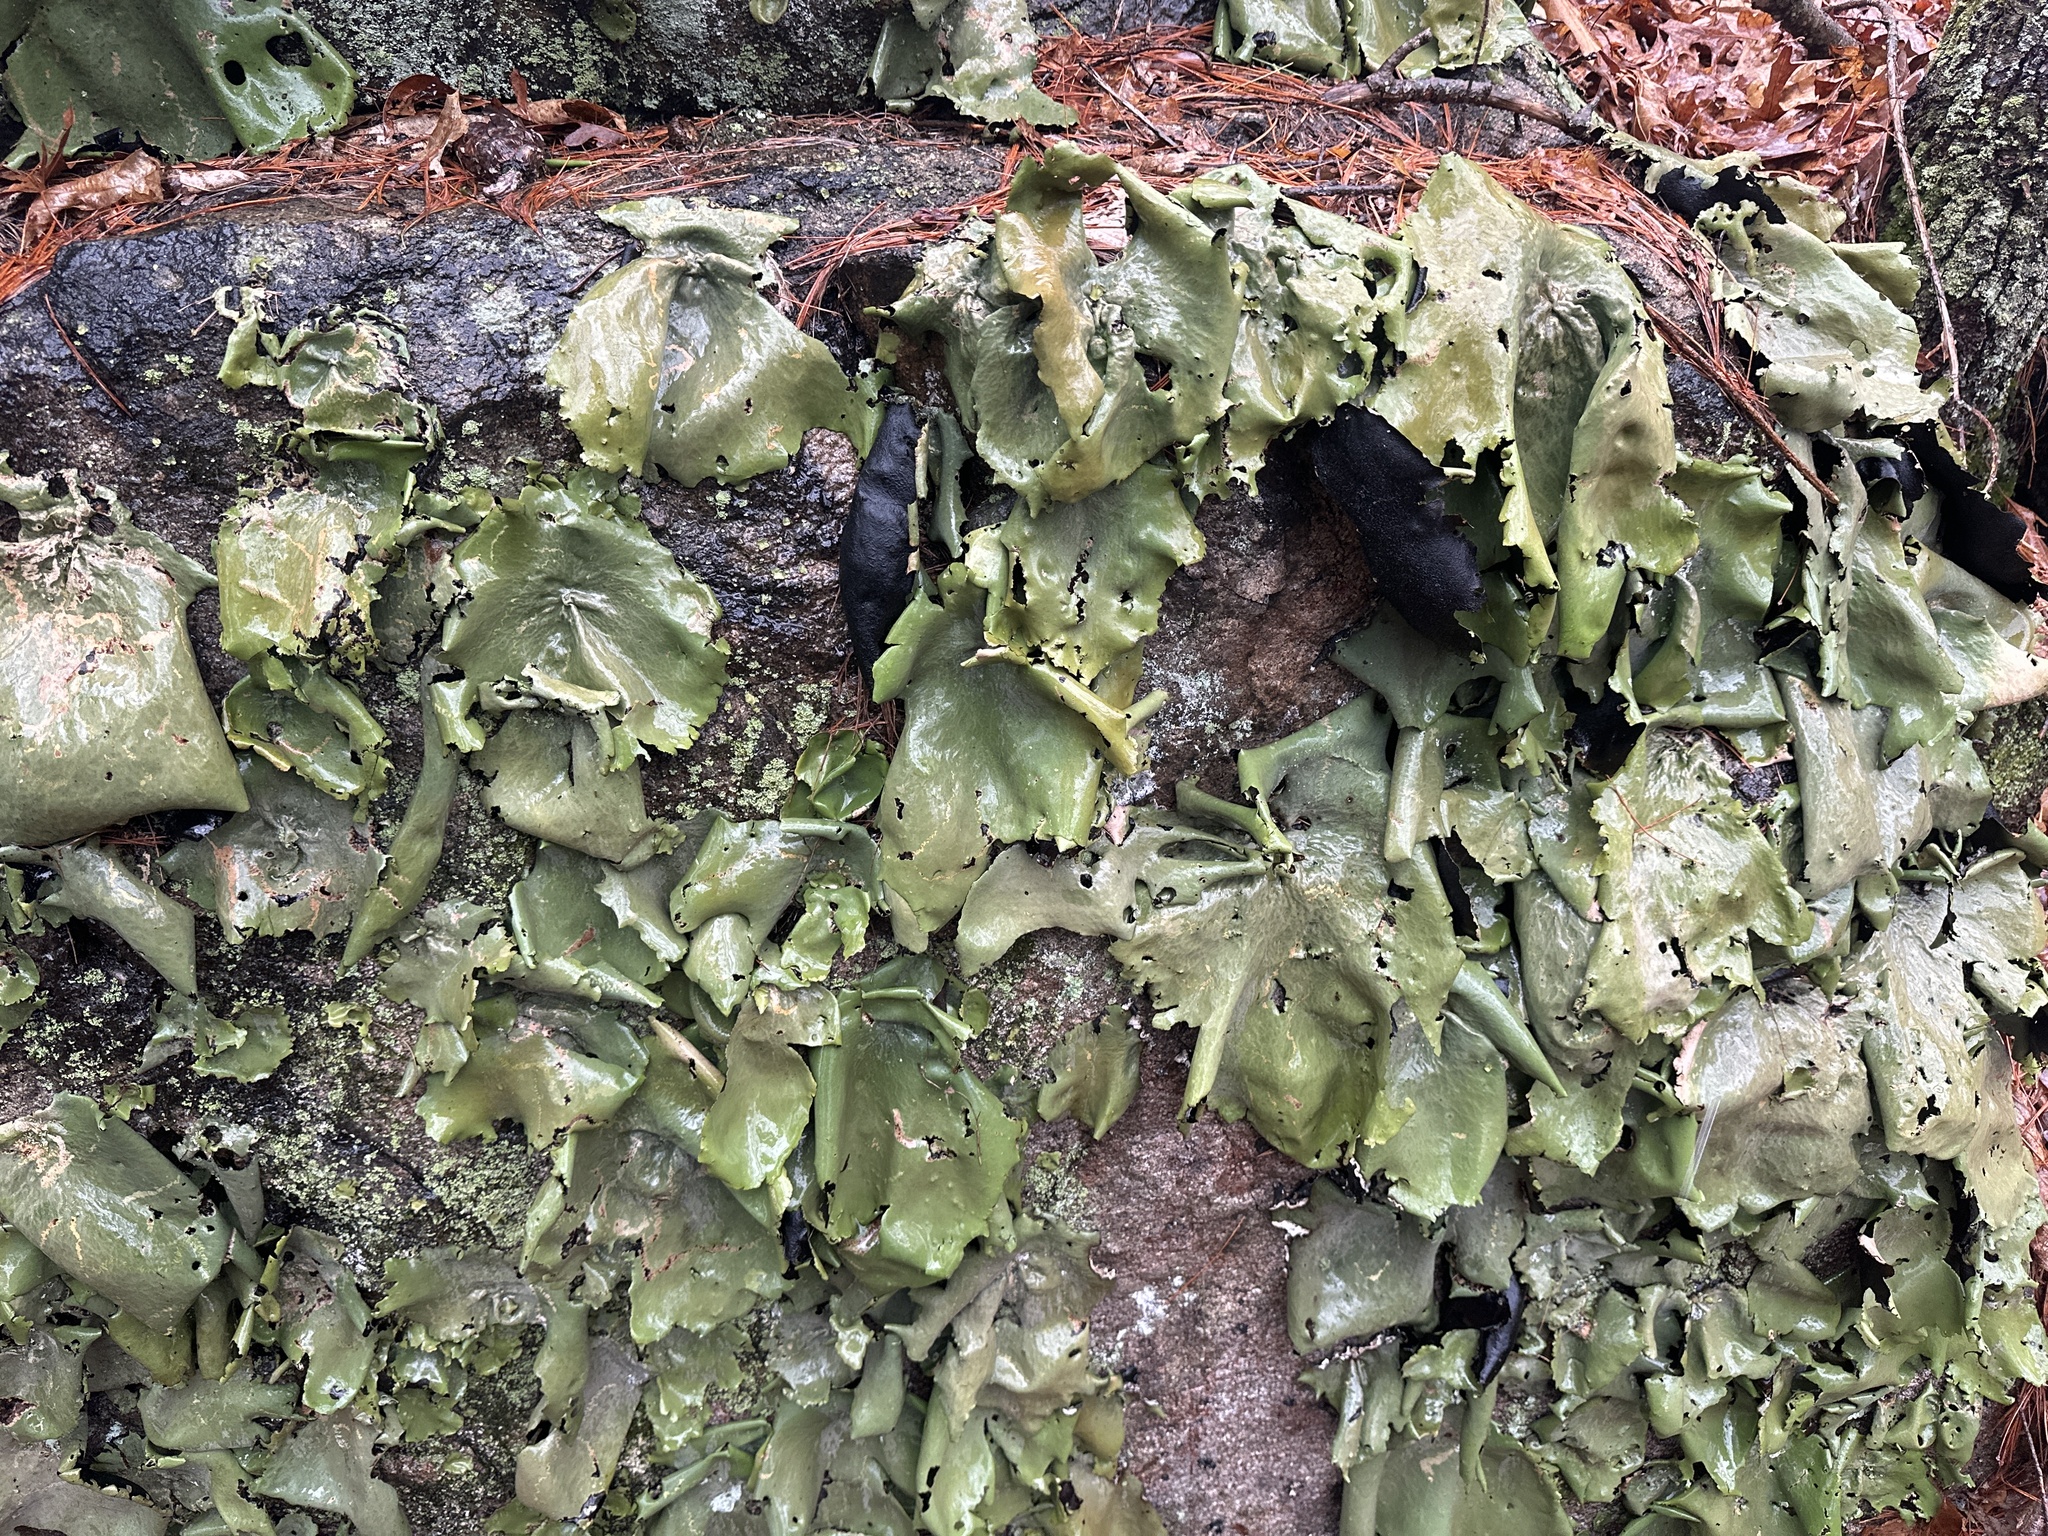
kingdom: Fungi
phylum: Ascomycota
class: Lecanoromycetes
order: Umbilicariales
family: Umbilicariaceae
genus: Umbilicaria
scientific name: Umbilicaria mammulata
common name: Smooth rock tripe
